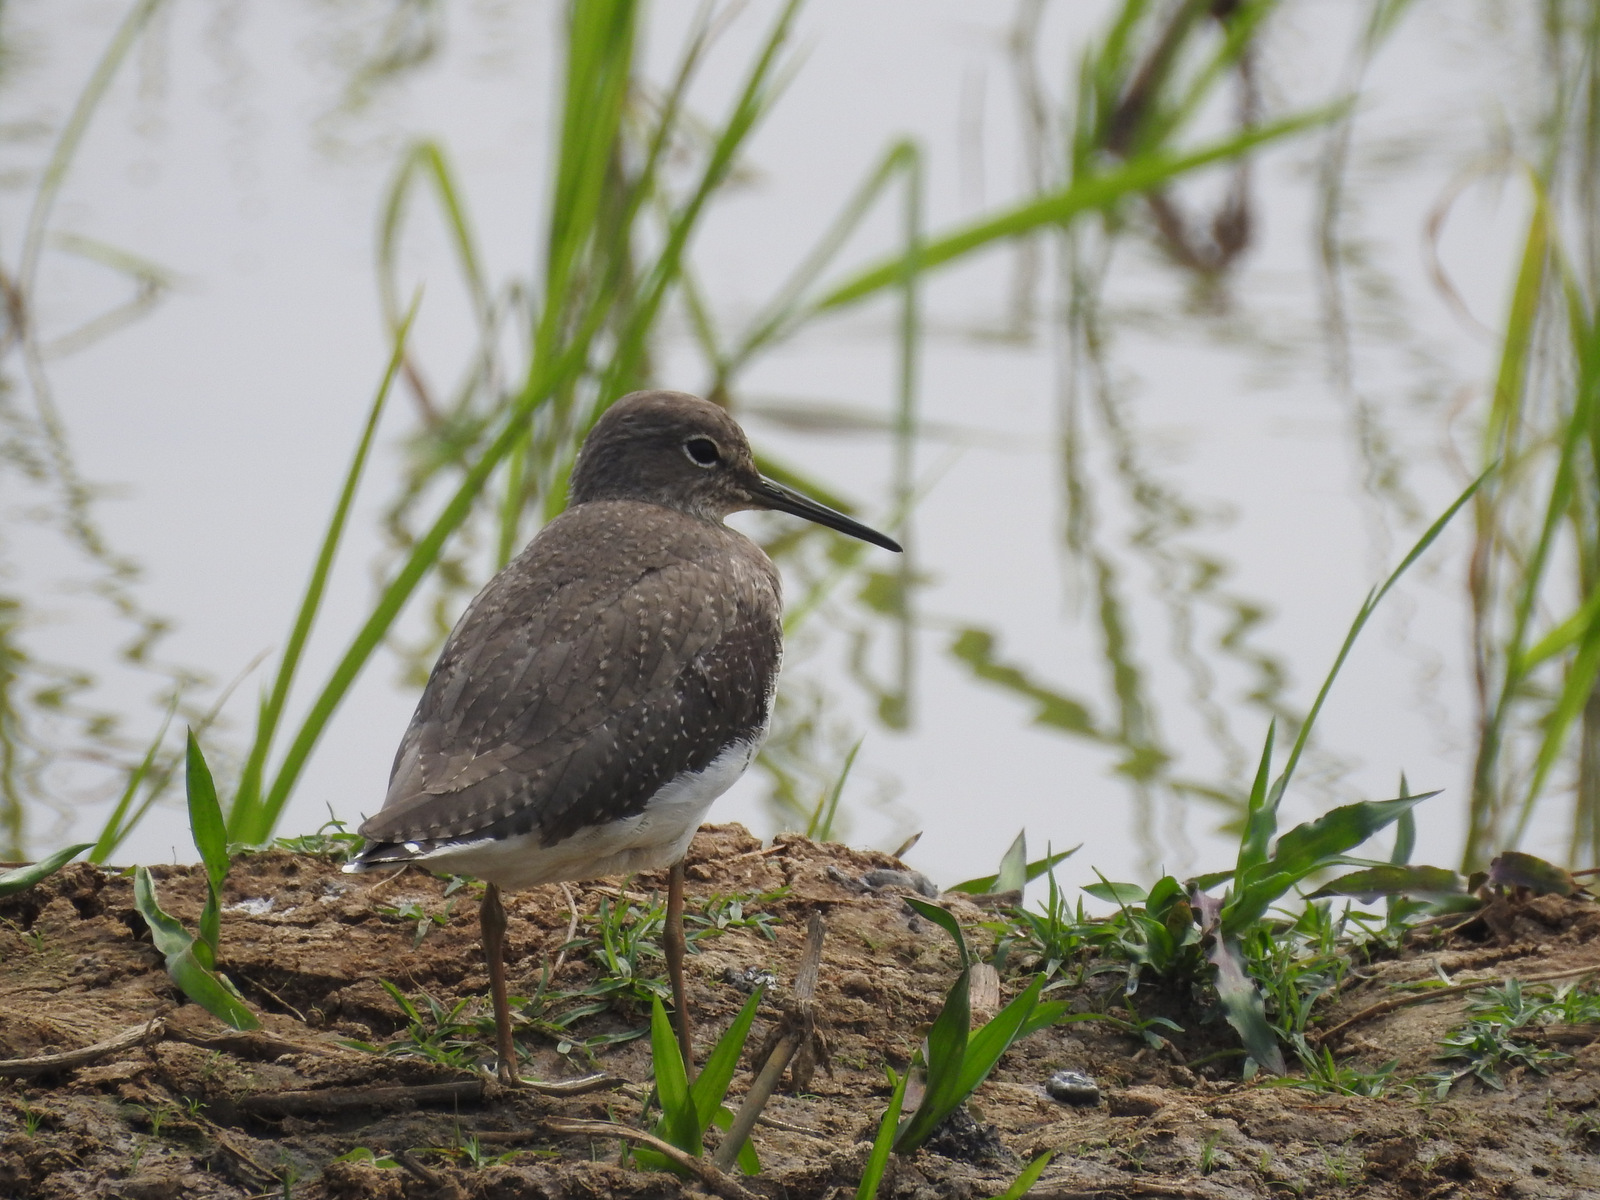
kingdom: Animalia
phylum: Chordata
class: Aves
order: Charadriiformes
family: Scolopacidae
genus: Tringa
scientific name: Tringa ochropus
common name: Green sandpiper
